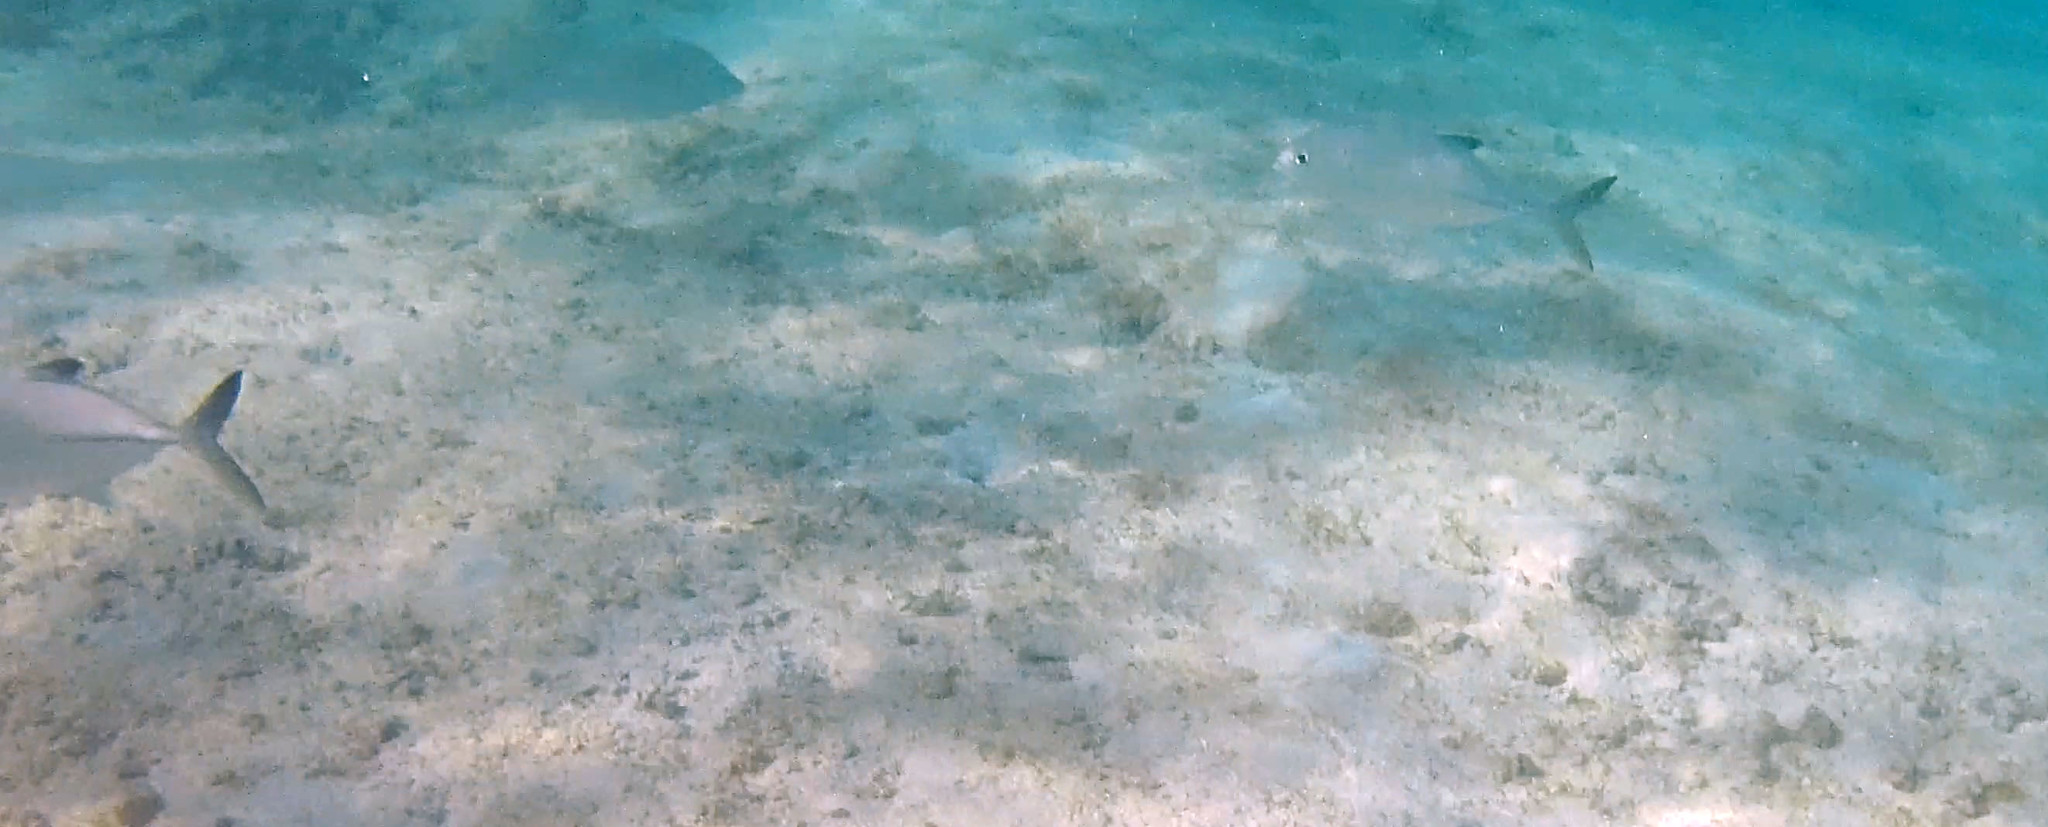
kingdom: Animalia
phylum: Chordata
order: Perciformes
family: Carangidae
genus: Caranx
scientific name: Caranx sexfasciatus
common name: Bigeye trevally
